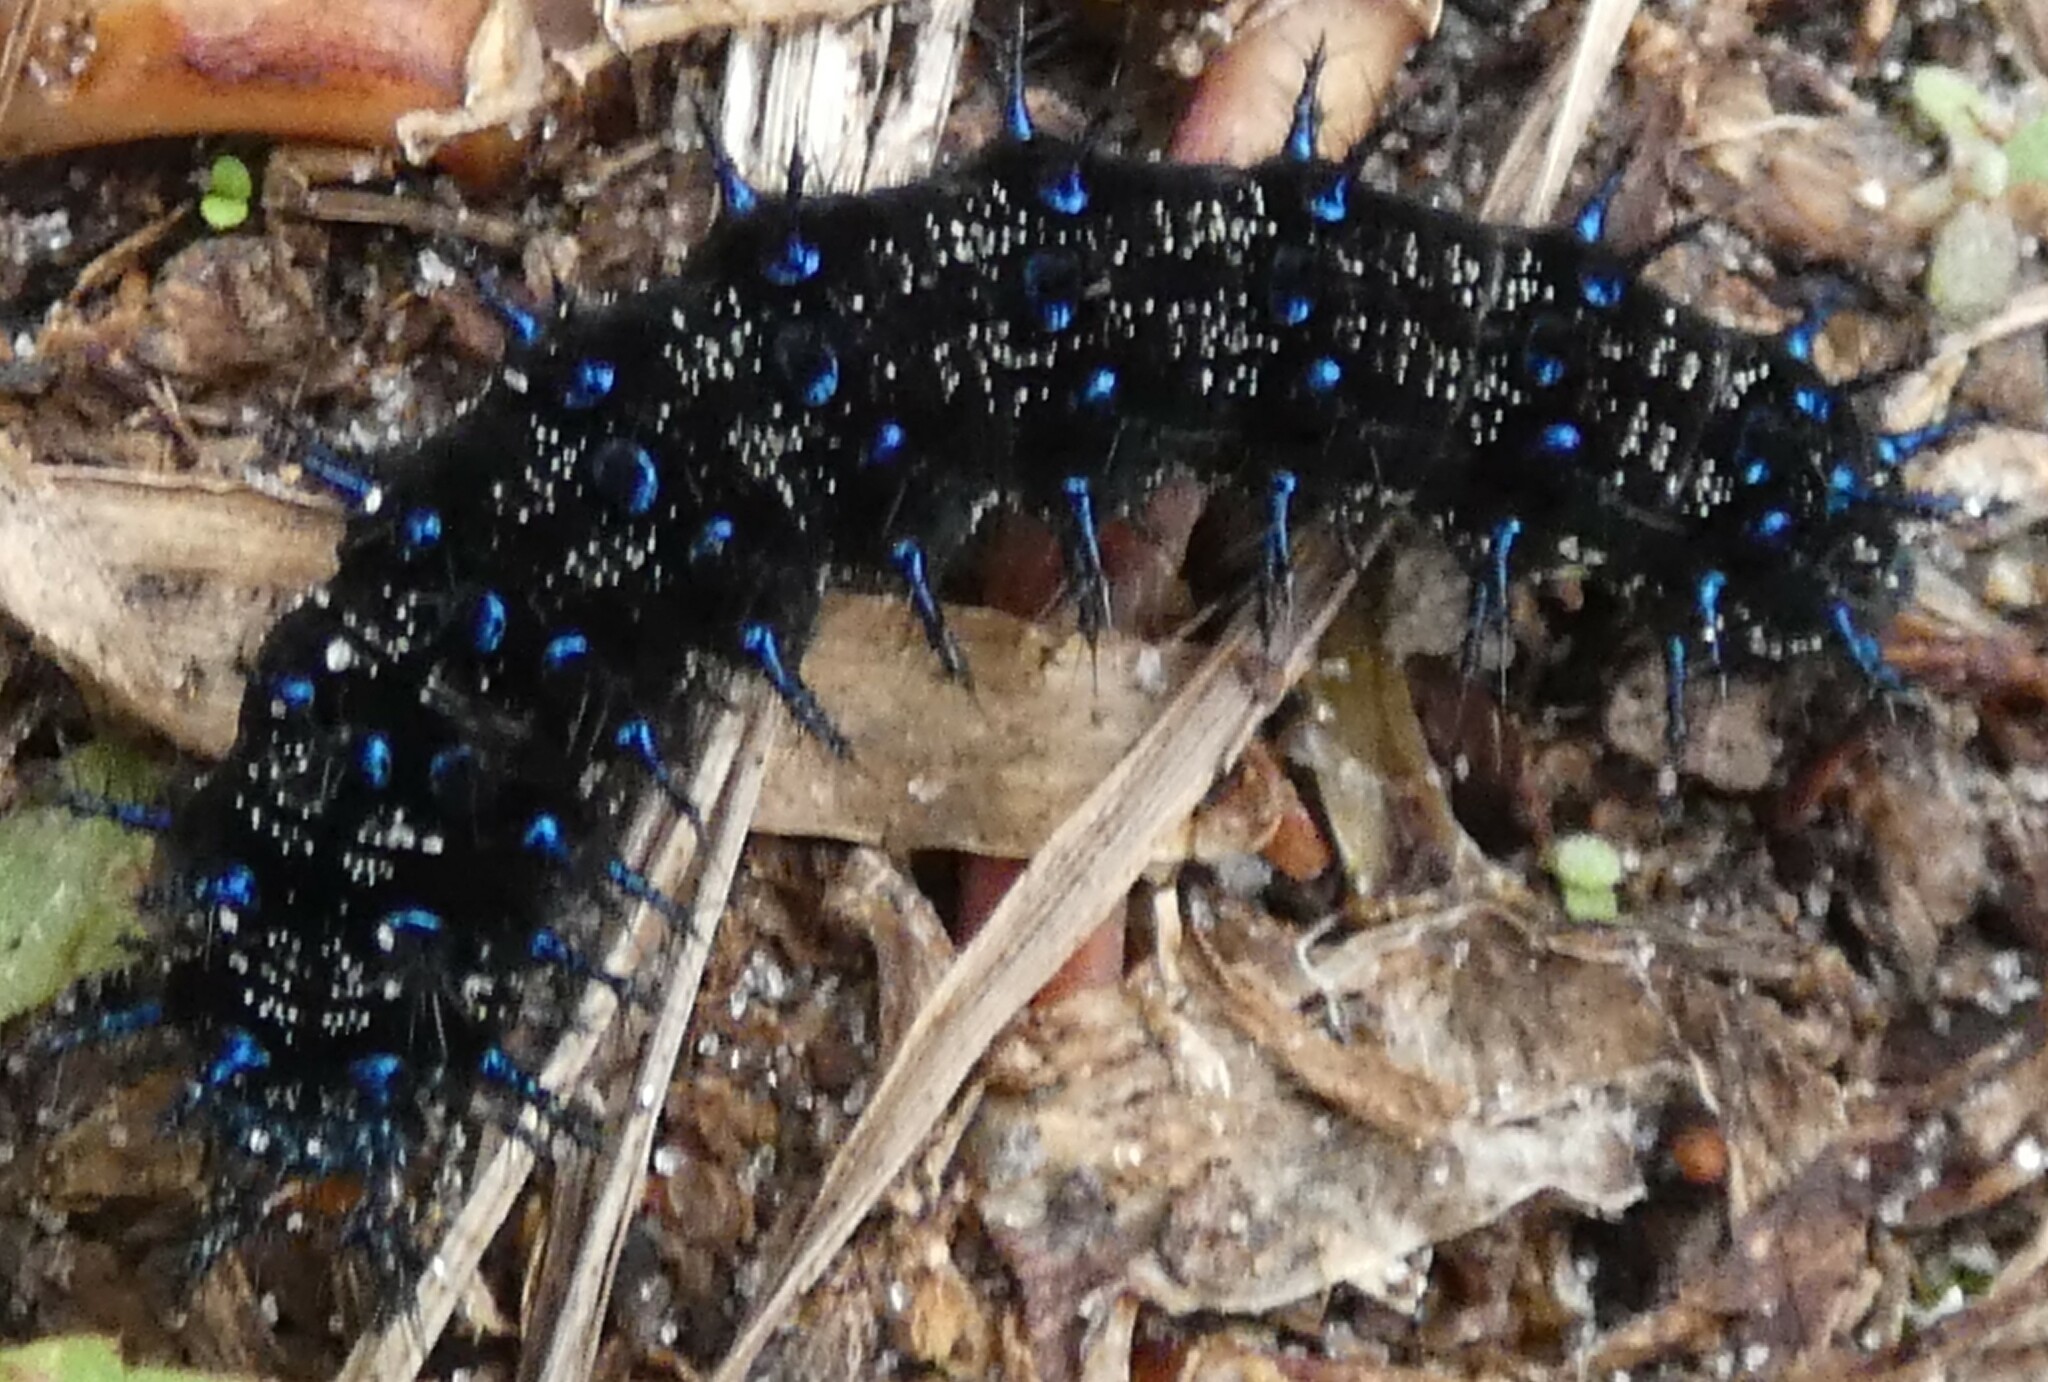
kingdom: Animalia
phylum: Arthropoda
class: Insecta
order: Lepidoptera
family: Nymphalidae
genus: Junonia
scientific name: Junonia coenia
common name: Common buckeye
